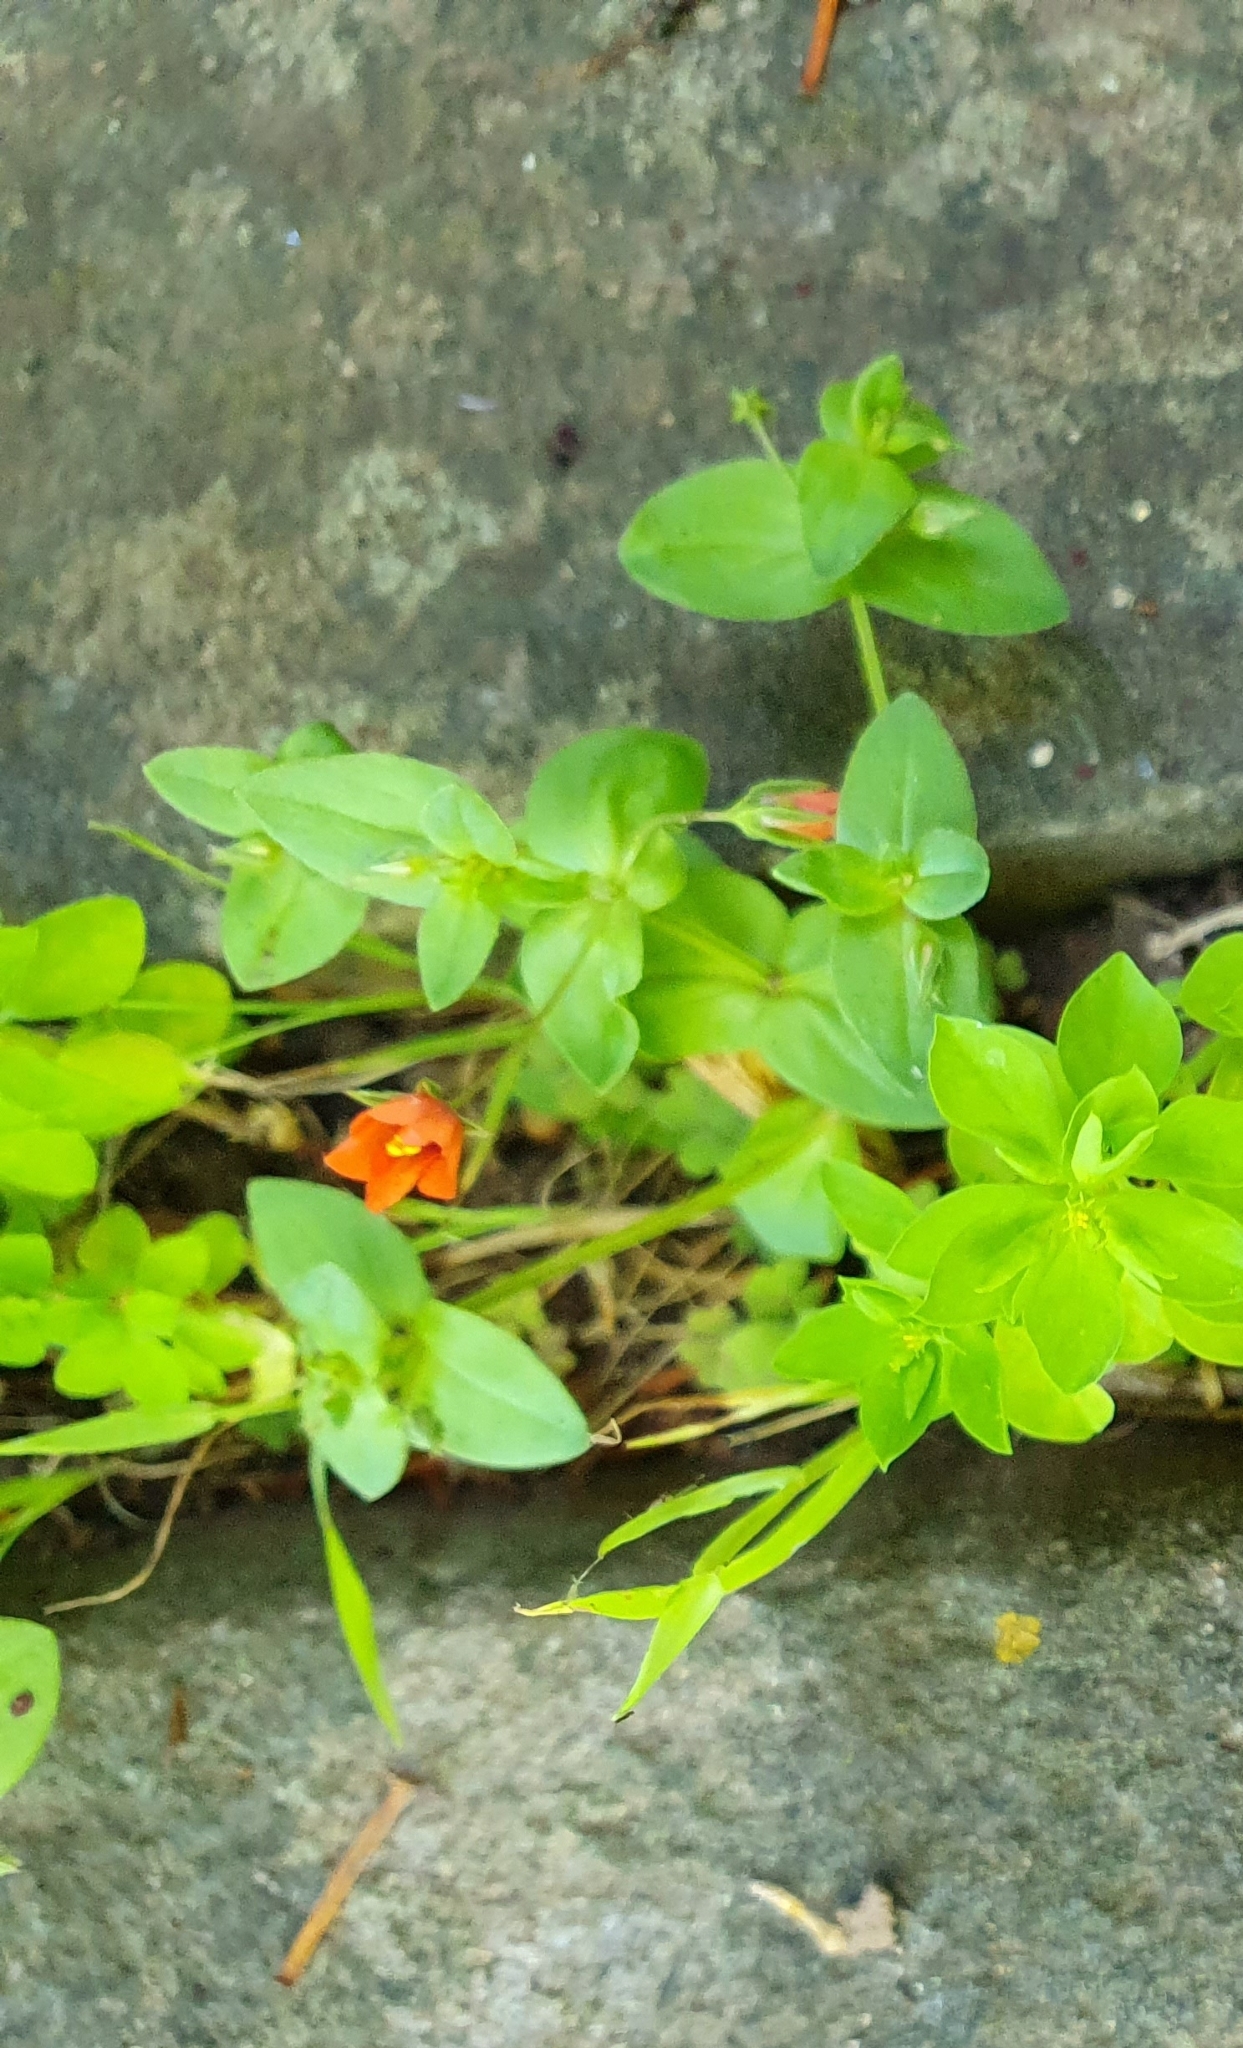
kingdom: Plantae
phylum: Tracheophyta
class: Magnoliopsida
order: Ericales
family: Primulaceae
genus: Lysimachia
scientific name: Lysimachia arvensis
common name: Scarlet pimpernel
